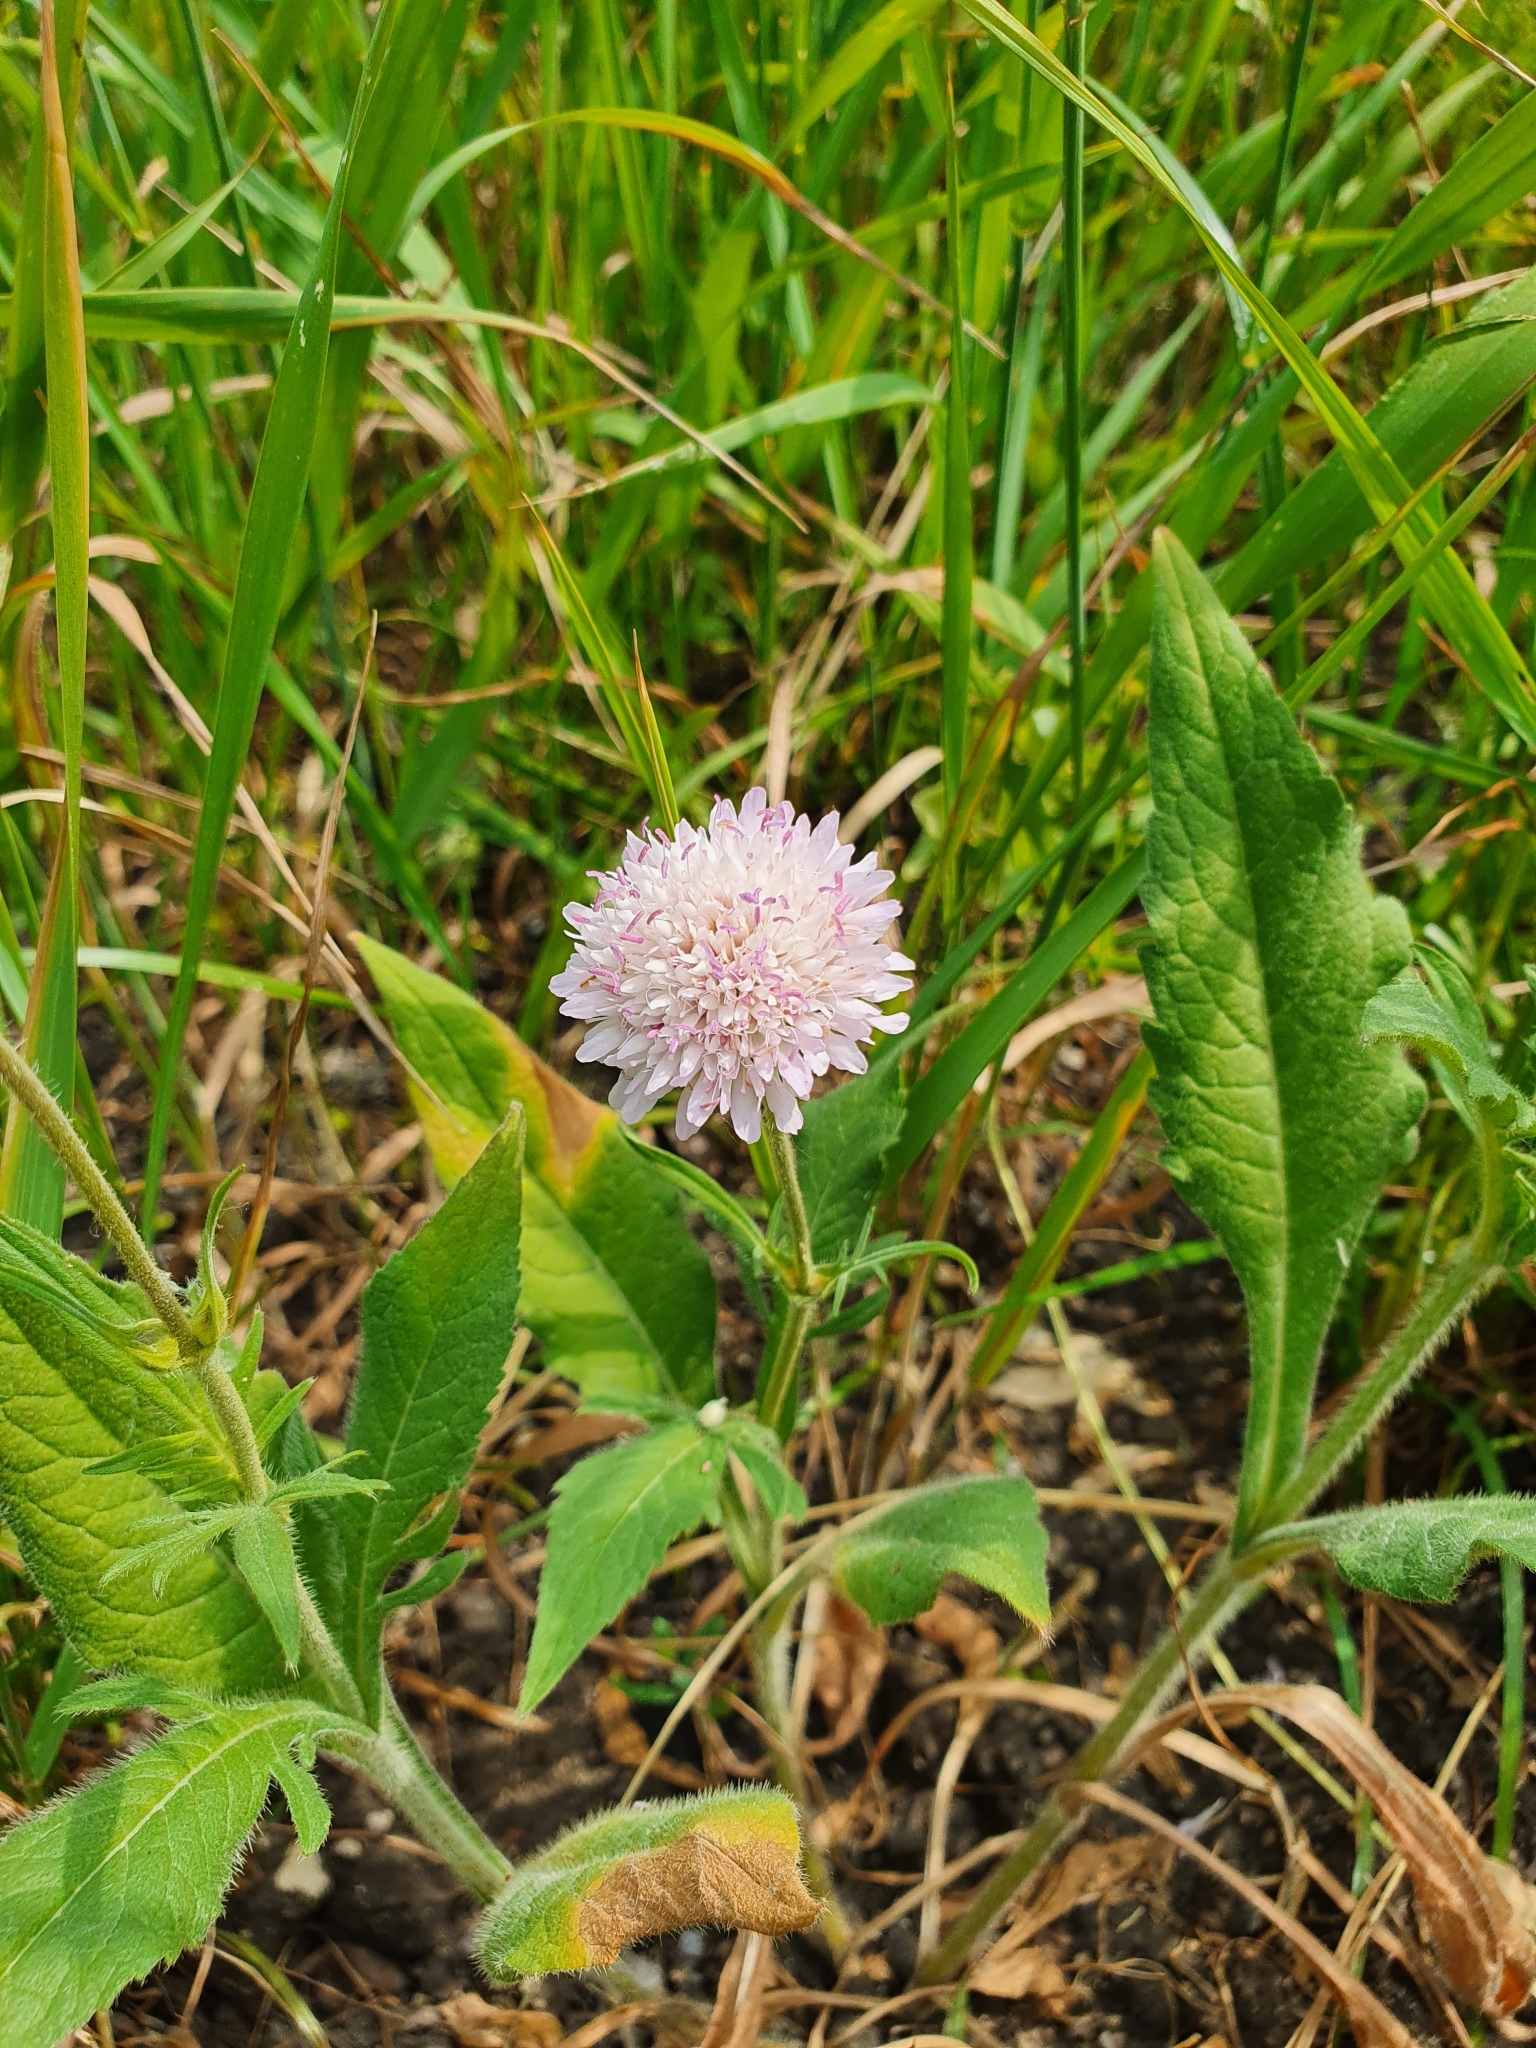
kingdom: Plantae
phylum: Tracheophyta
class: Magnoliopsida
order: Dipsacales
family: Caprifoliaceae
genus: Knautia
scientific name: Knautia arvensis
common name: Field scabiosa
